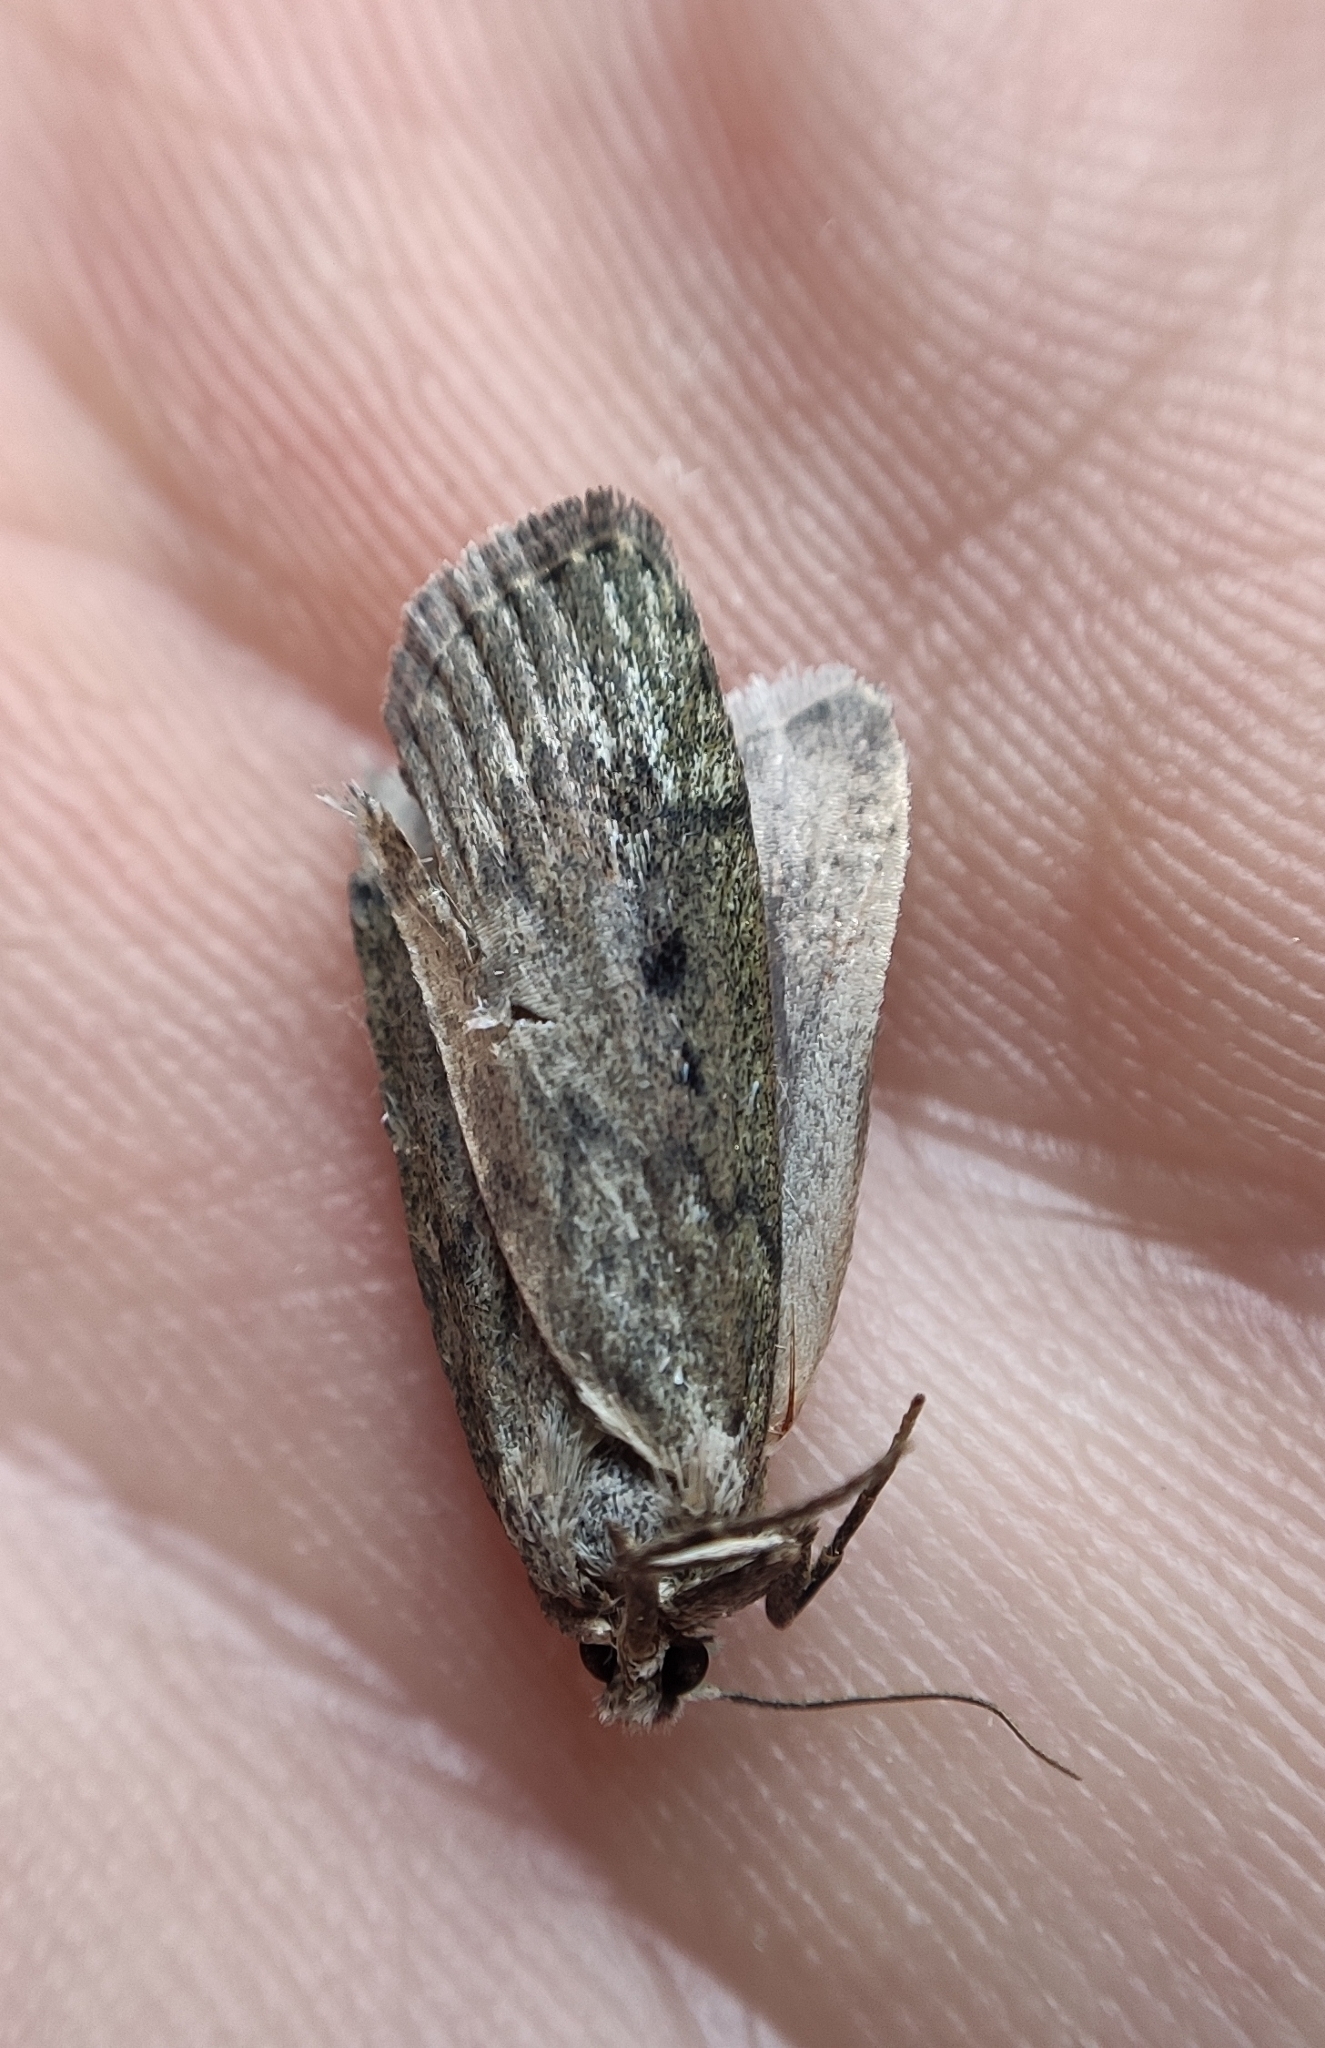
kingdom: Animalia
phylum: Arthropoda
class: Insecta
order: Lepidoptera
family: Pyralidae
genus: Aphomia
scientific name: Aphomia sociella
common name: Bee moth
